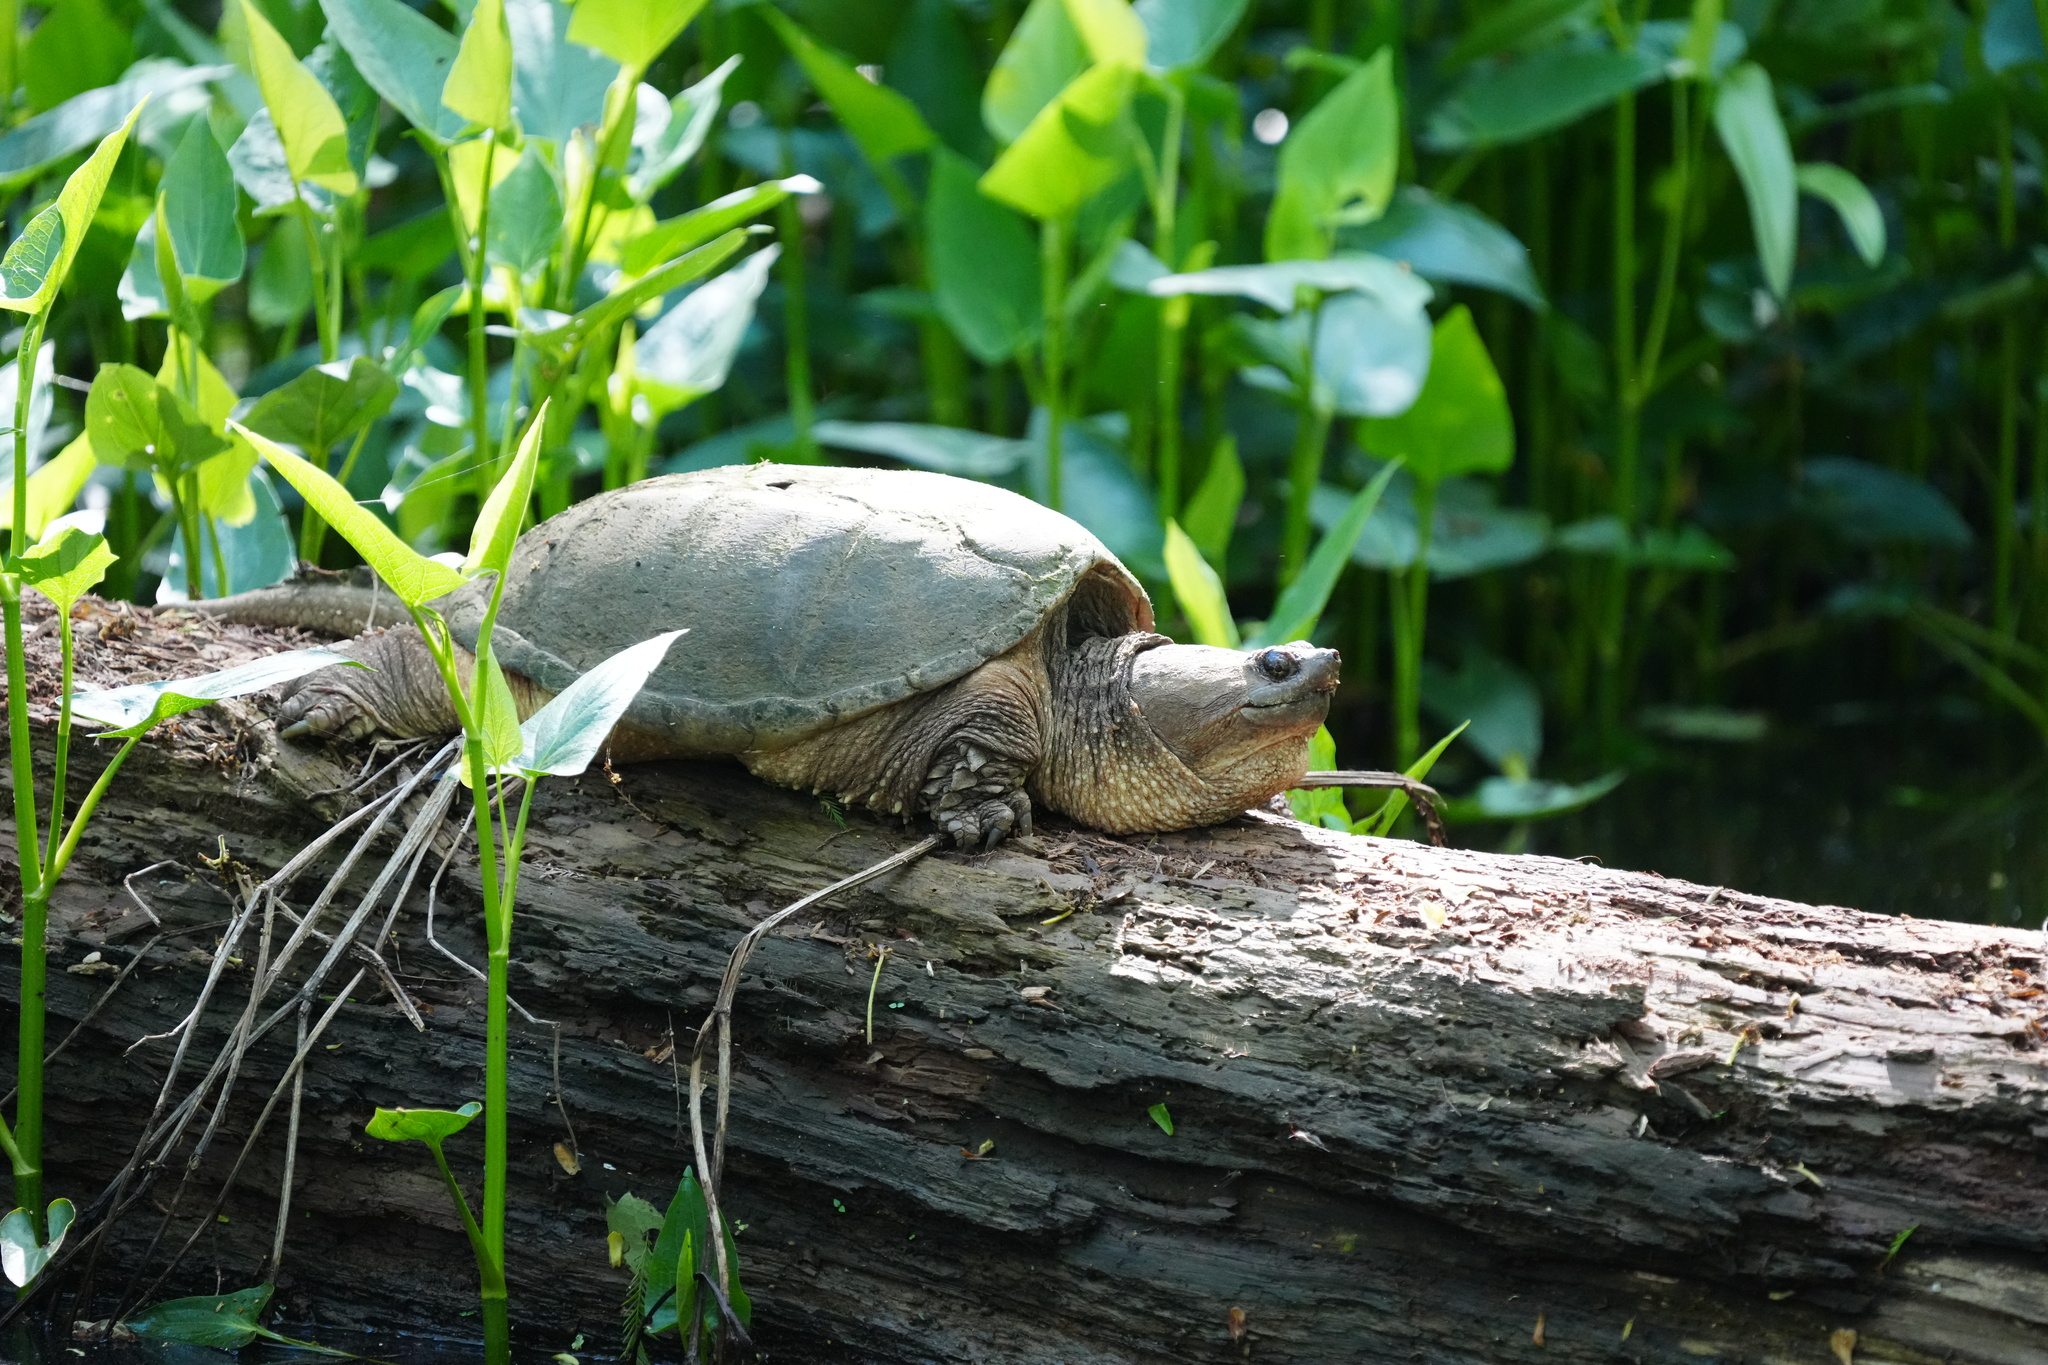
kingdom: Animalia
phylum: Chordata
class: Testudines
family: Chelydridae
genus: Chelydra
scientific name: Chelydra serpentina
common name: Common snapping turtle
